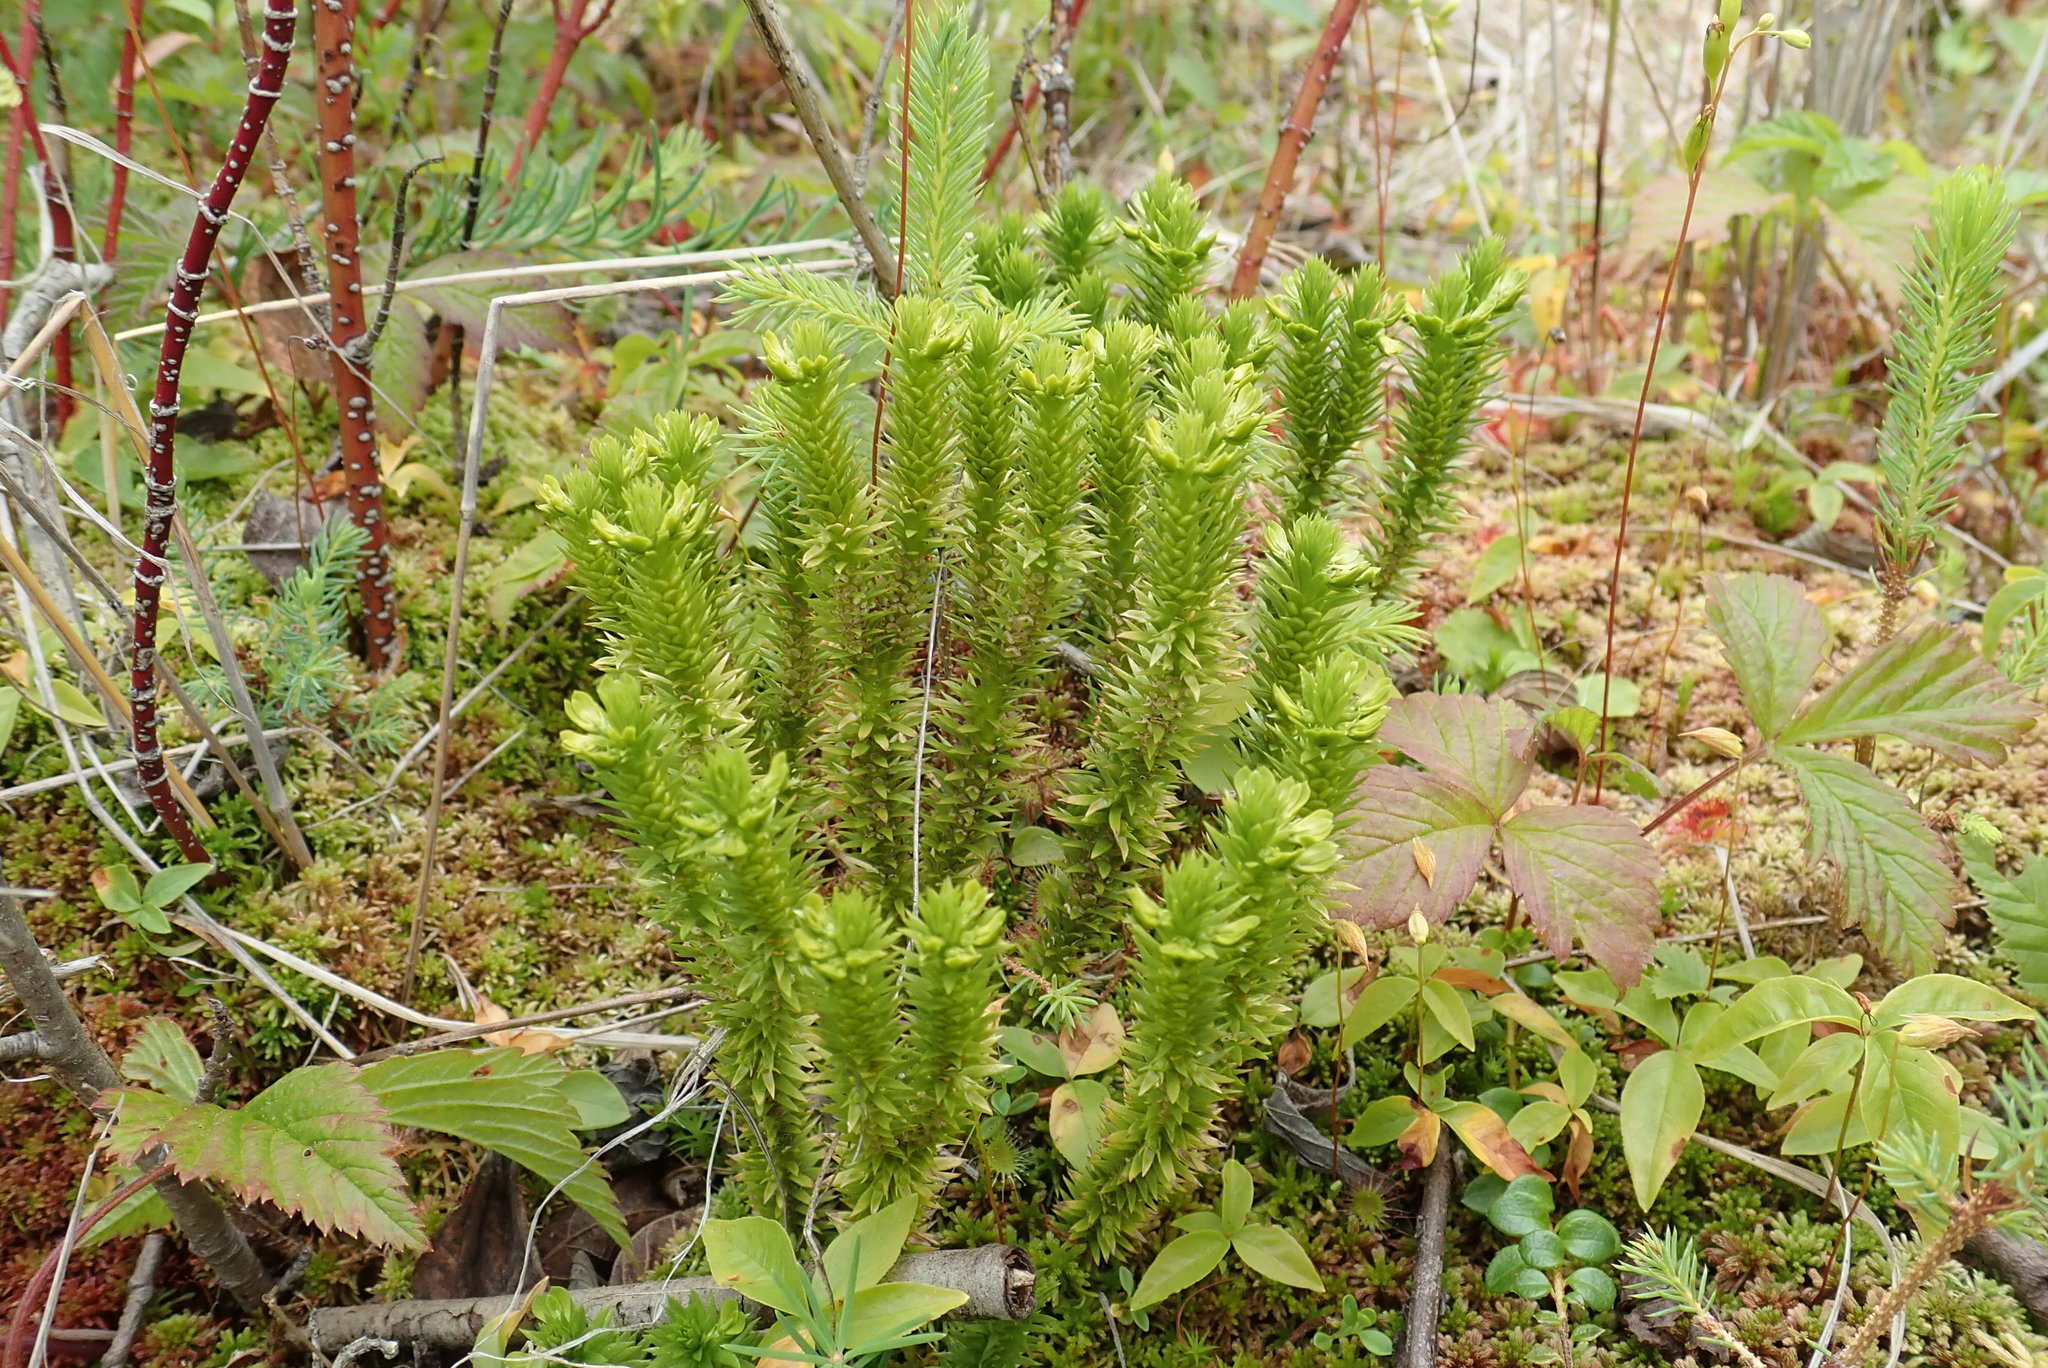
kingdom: Plantae
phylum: Tracheophyta
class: Lycopodiopsida
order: Lycopodiales
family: Lycopodiaceae
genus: Huperzia
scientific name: Huperzia selago
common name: Northern firmoss
